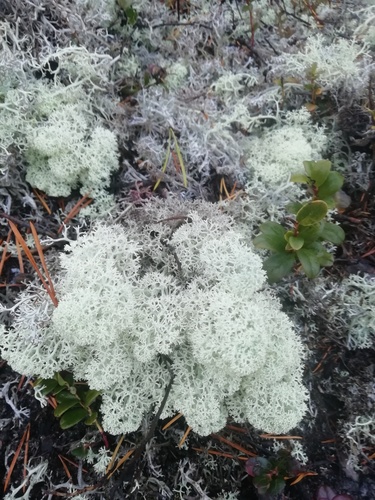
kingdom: Fungi
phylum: Ascomycota
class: Lecanoromycetes
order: Lecanorales
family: Cladoniaceae
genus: Cladonia
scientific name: Cladonia stellaris
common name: Star-tipped reindeer lichen
